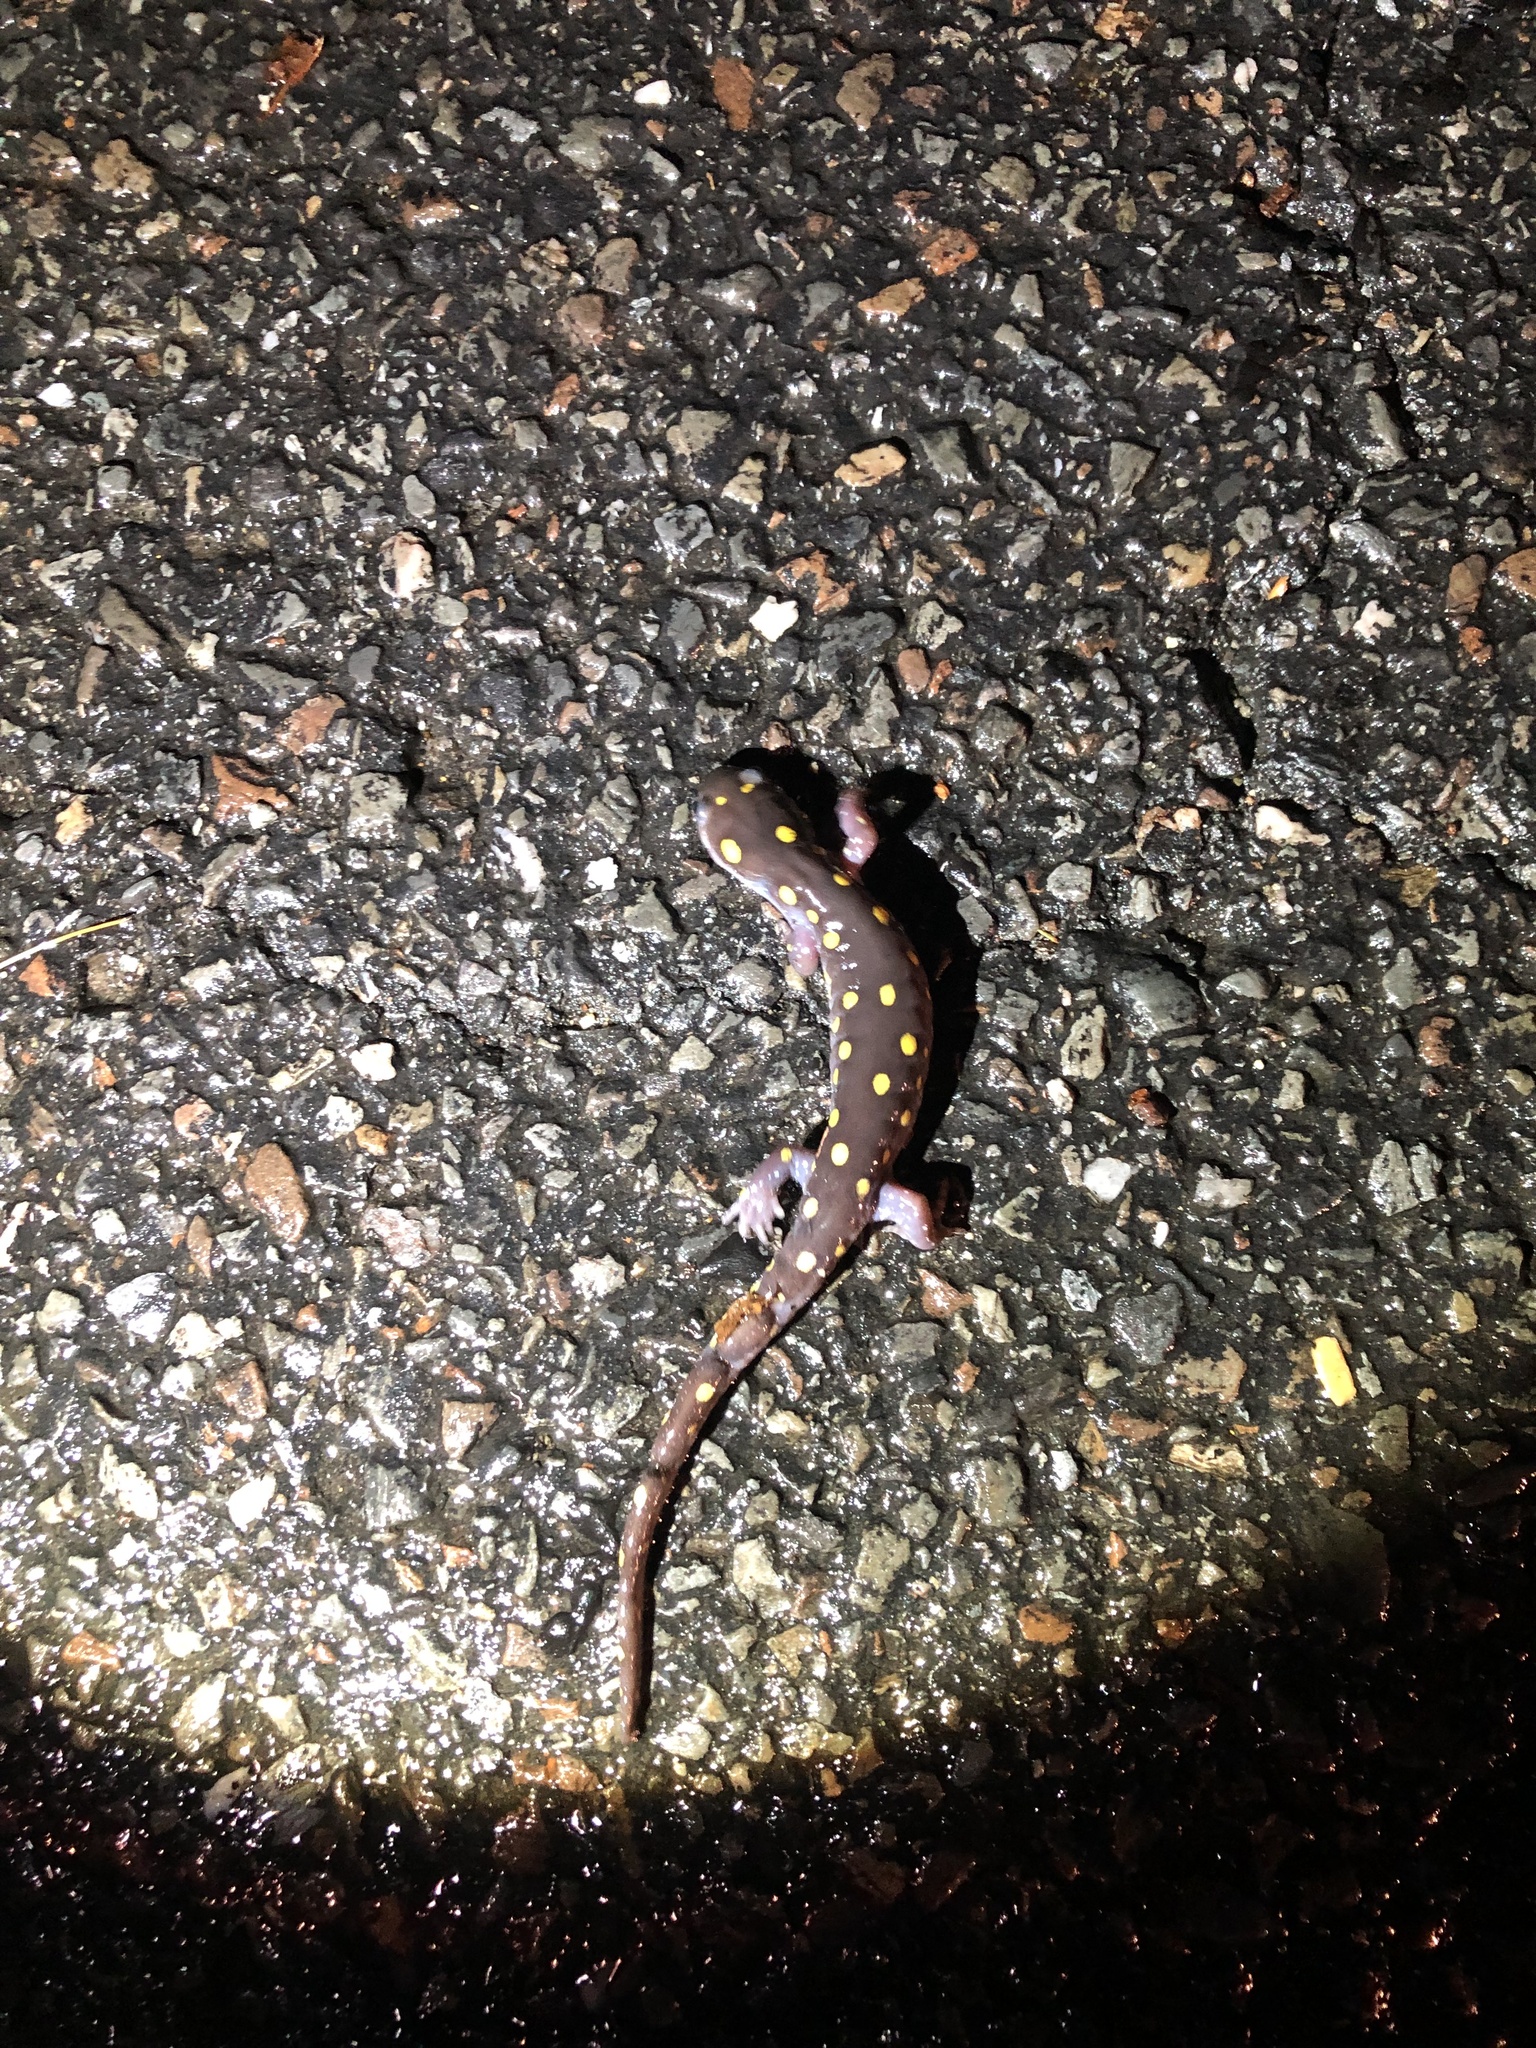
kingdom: Animalia
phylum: Chordata
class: Amphibia
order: Caudata
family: Ambystomatidae
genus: Ambystoma
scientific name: Ambystoma maculatum
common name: Spotted salamander
